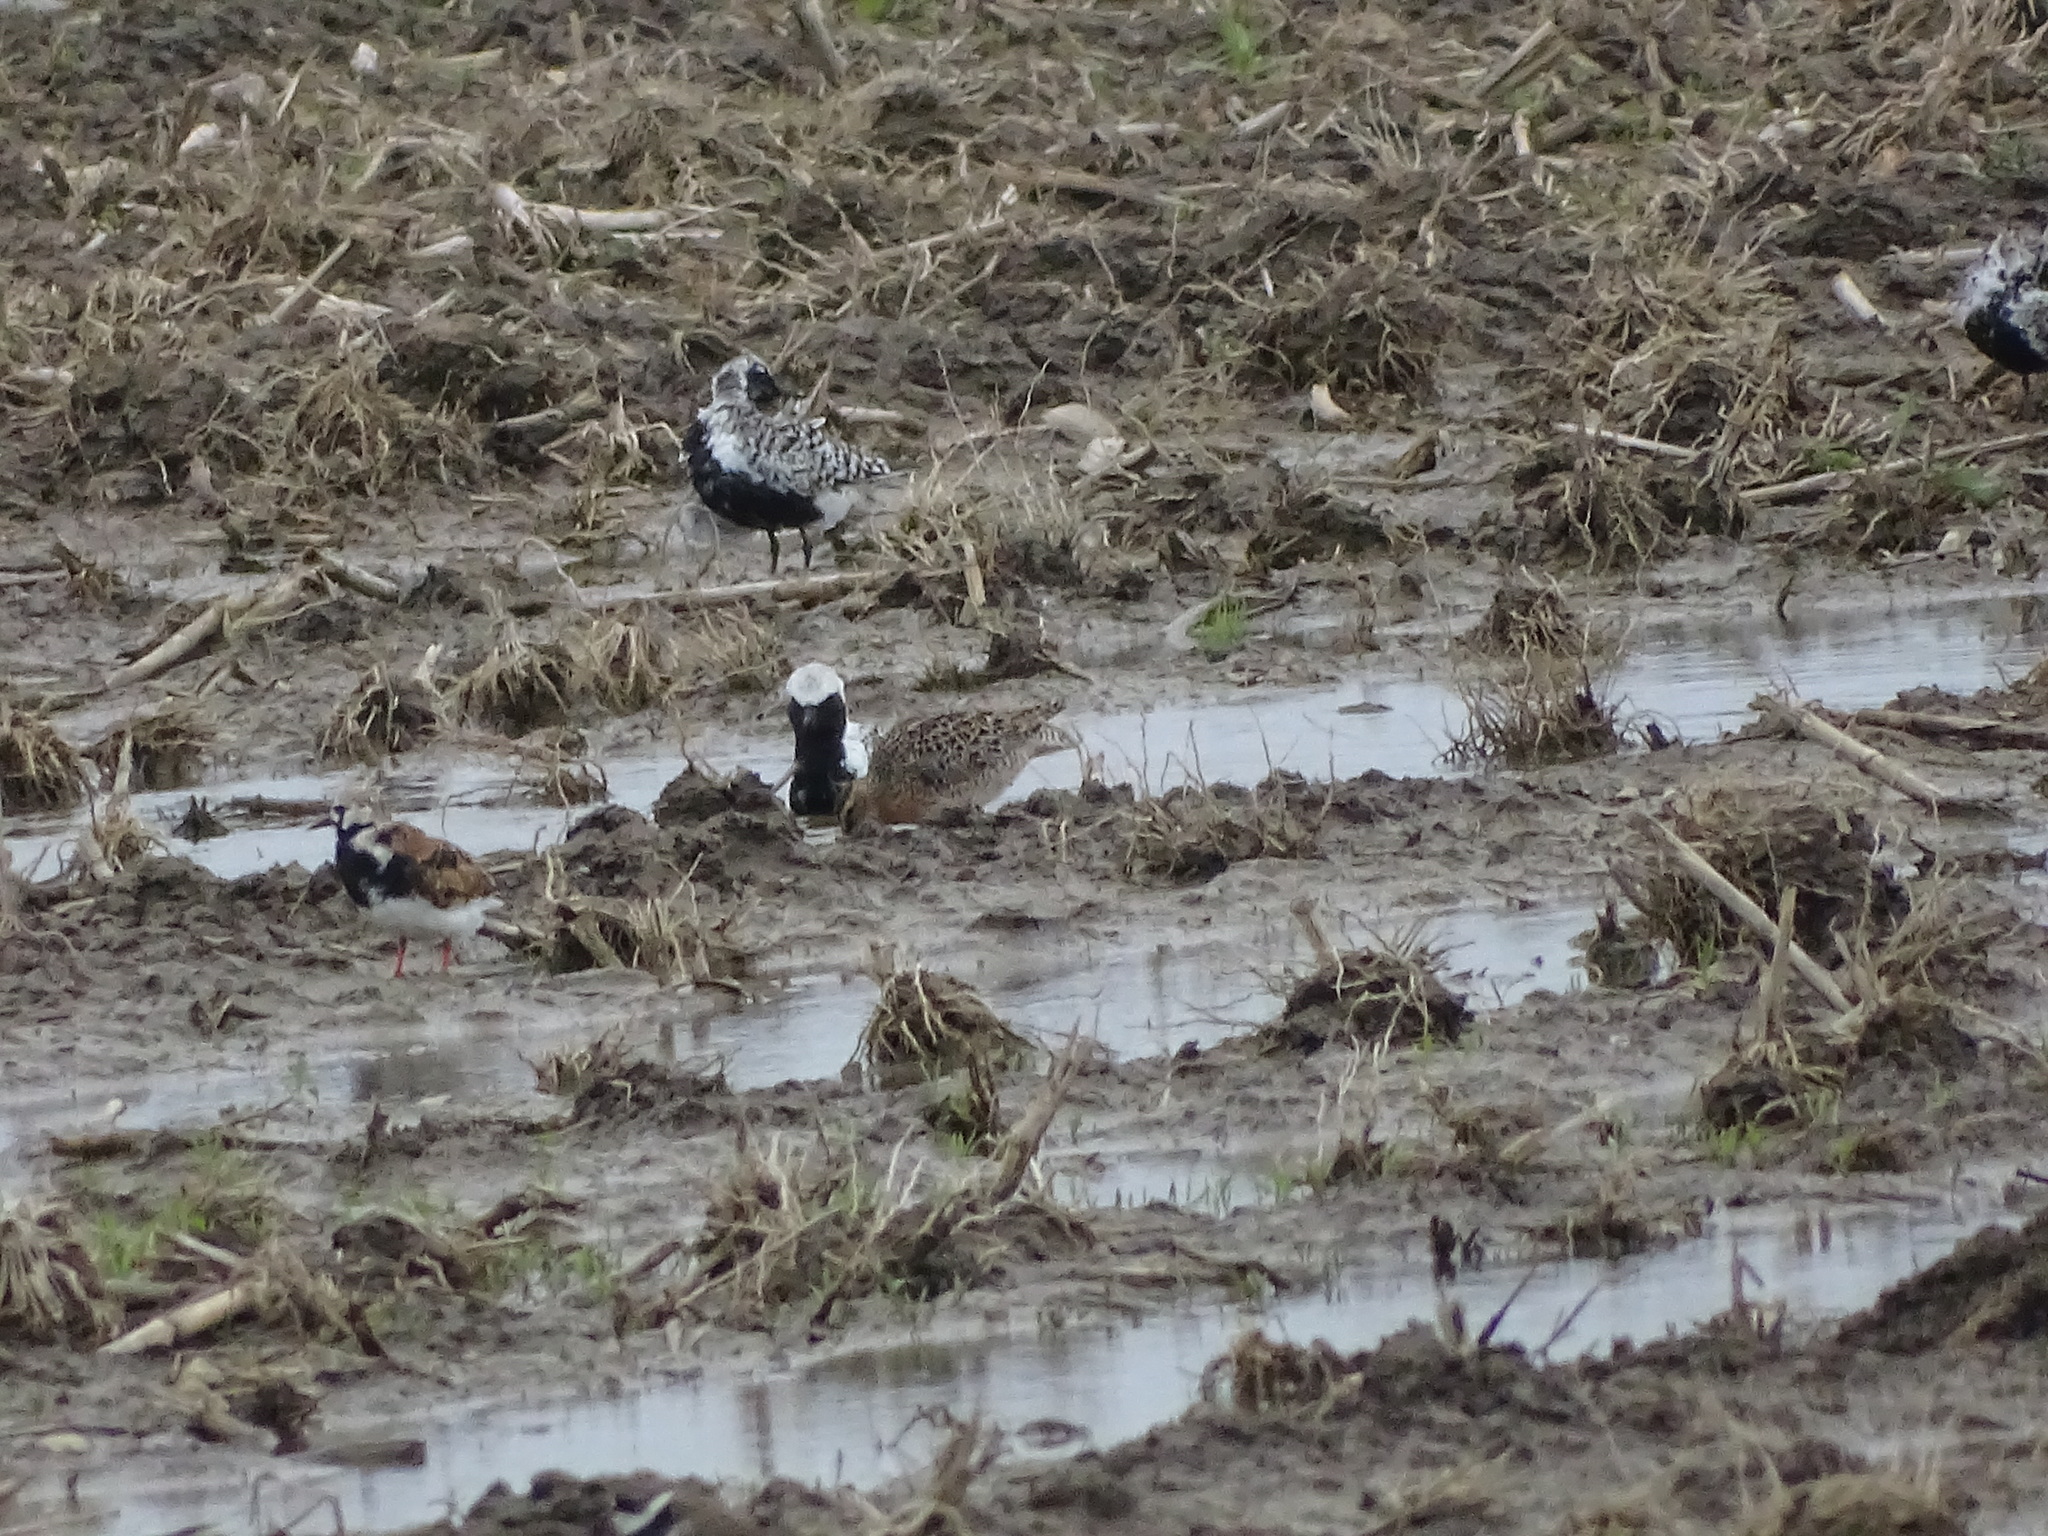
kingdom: Animalia
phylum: Chordata
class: Aves
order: Charadriiformes
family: Scolopacidae
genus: Limnodromus
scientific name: Limnodromus griseus
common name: Short-billed dowitcher
